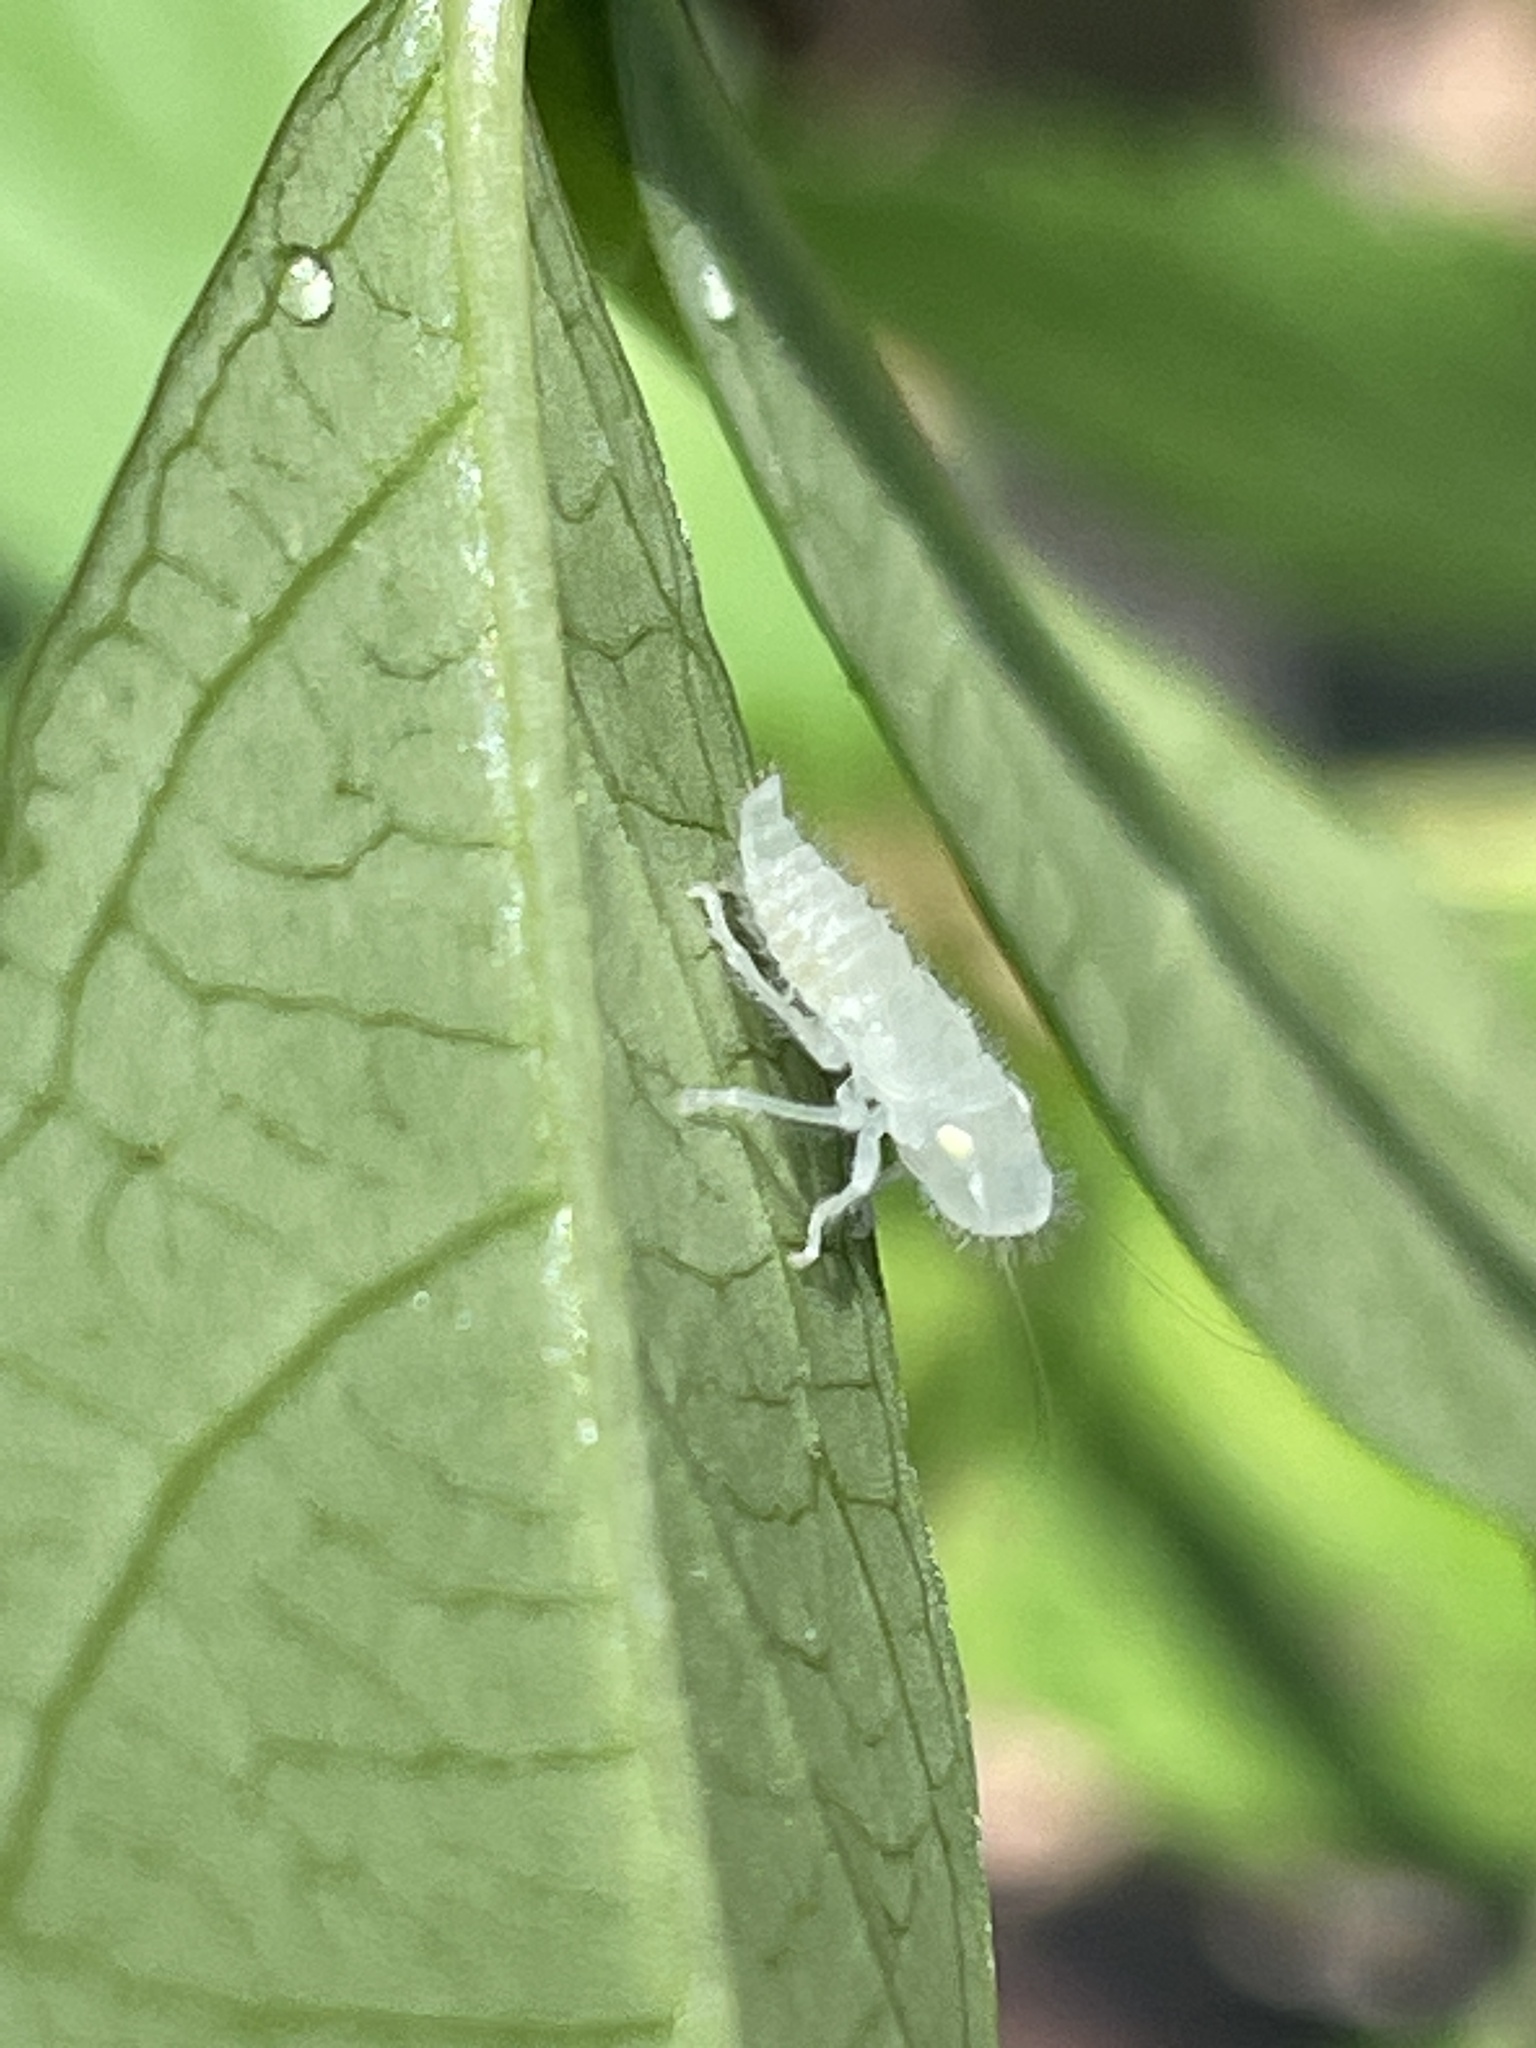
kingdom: Animalia
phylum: Arthropoda
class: Insecta
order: Hemiptera
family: Cicadellidae
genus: Paraulacizes
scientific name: Paraulacizes irrorata
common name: Speckled sharpshooter
